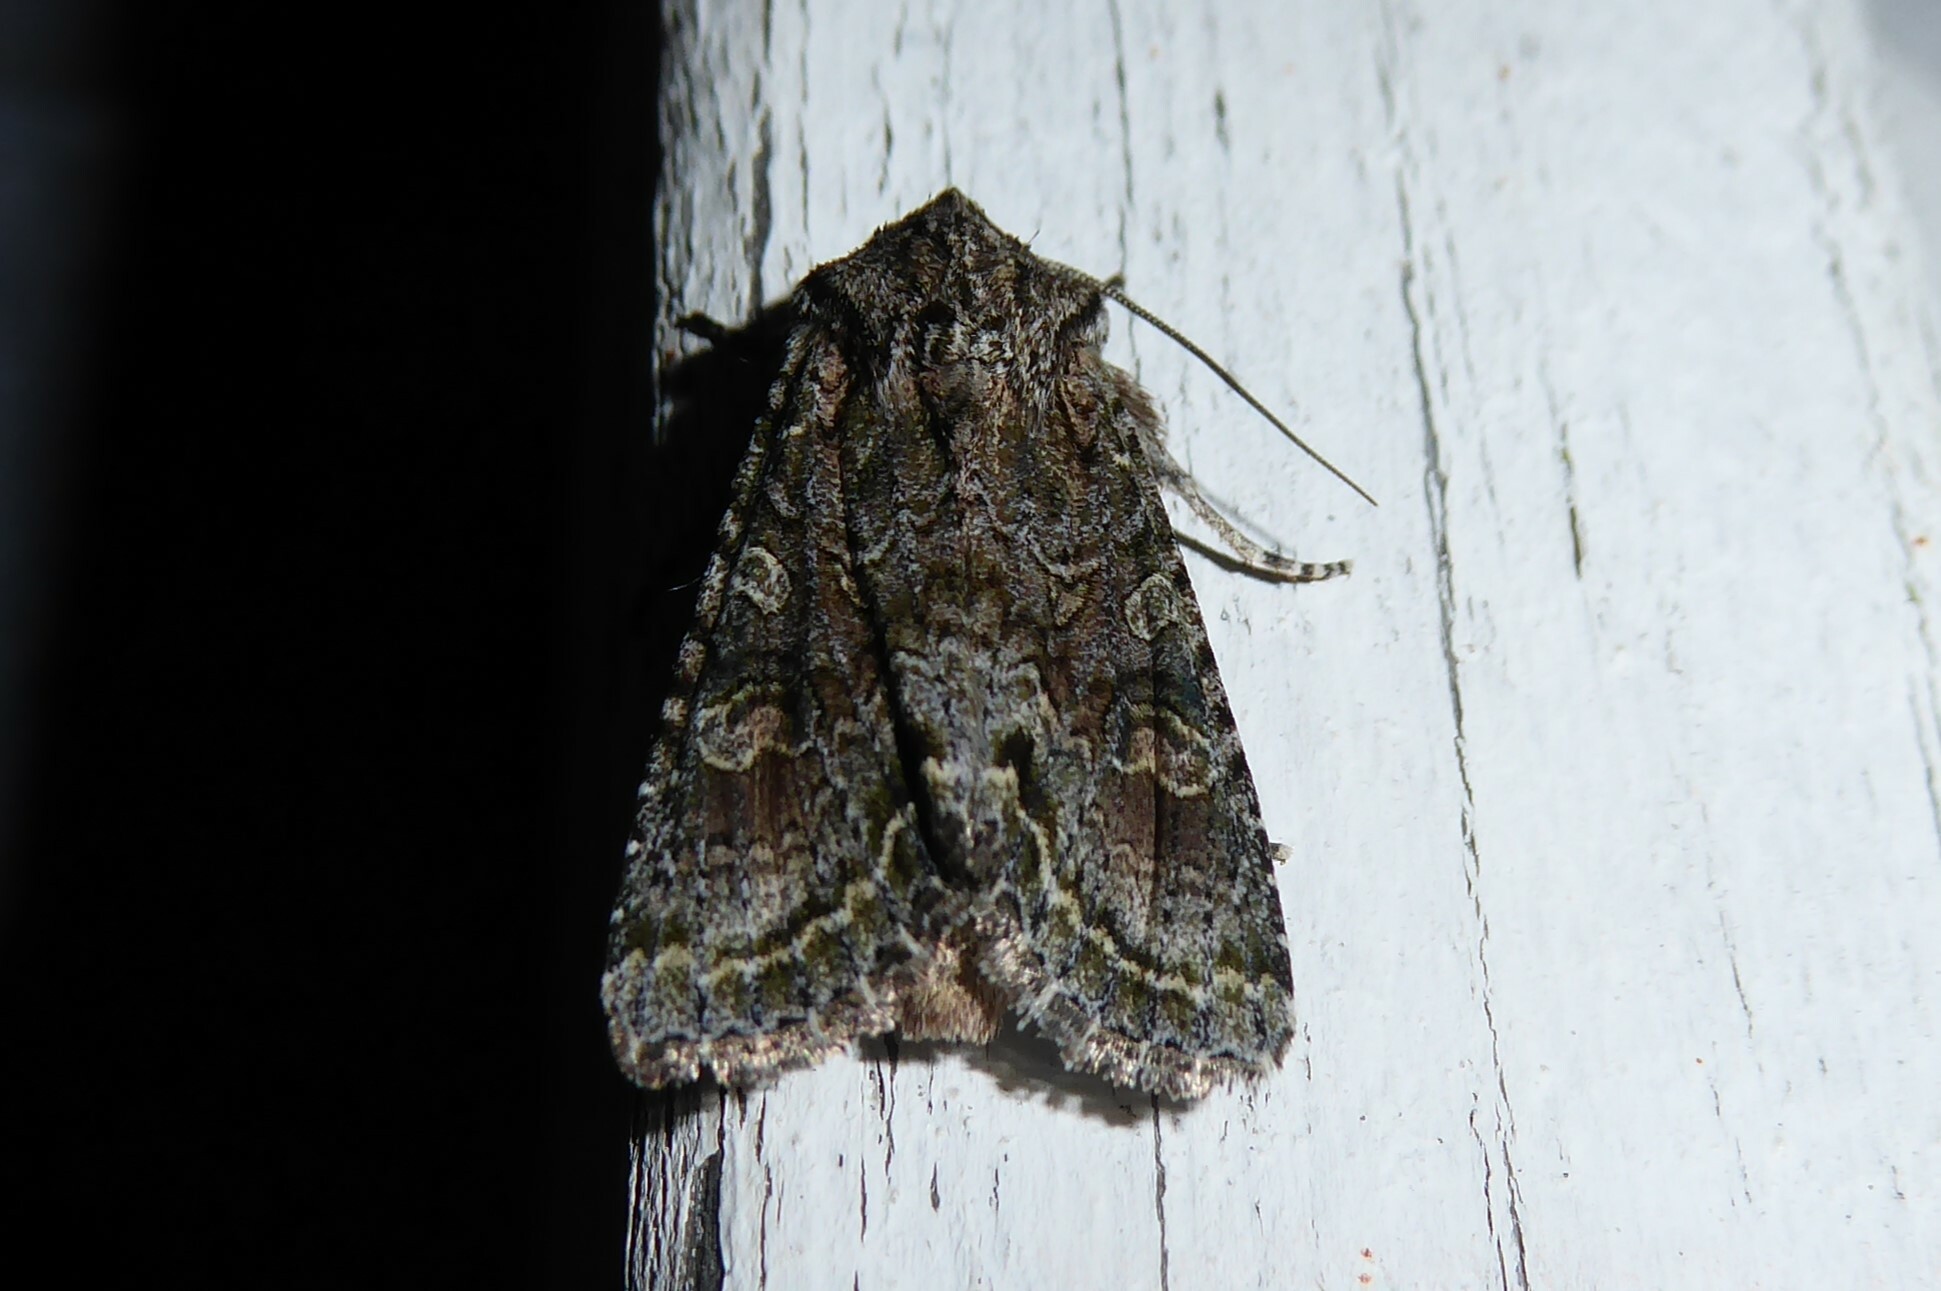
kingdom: Animalia
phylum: Arthropoda
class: Insecta
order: Lepidoptera
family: Noctuidae
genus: Ichneutica
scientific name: Ichneutica mutans
